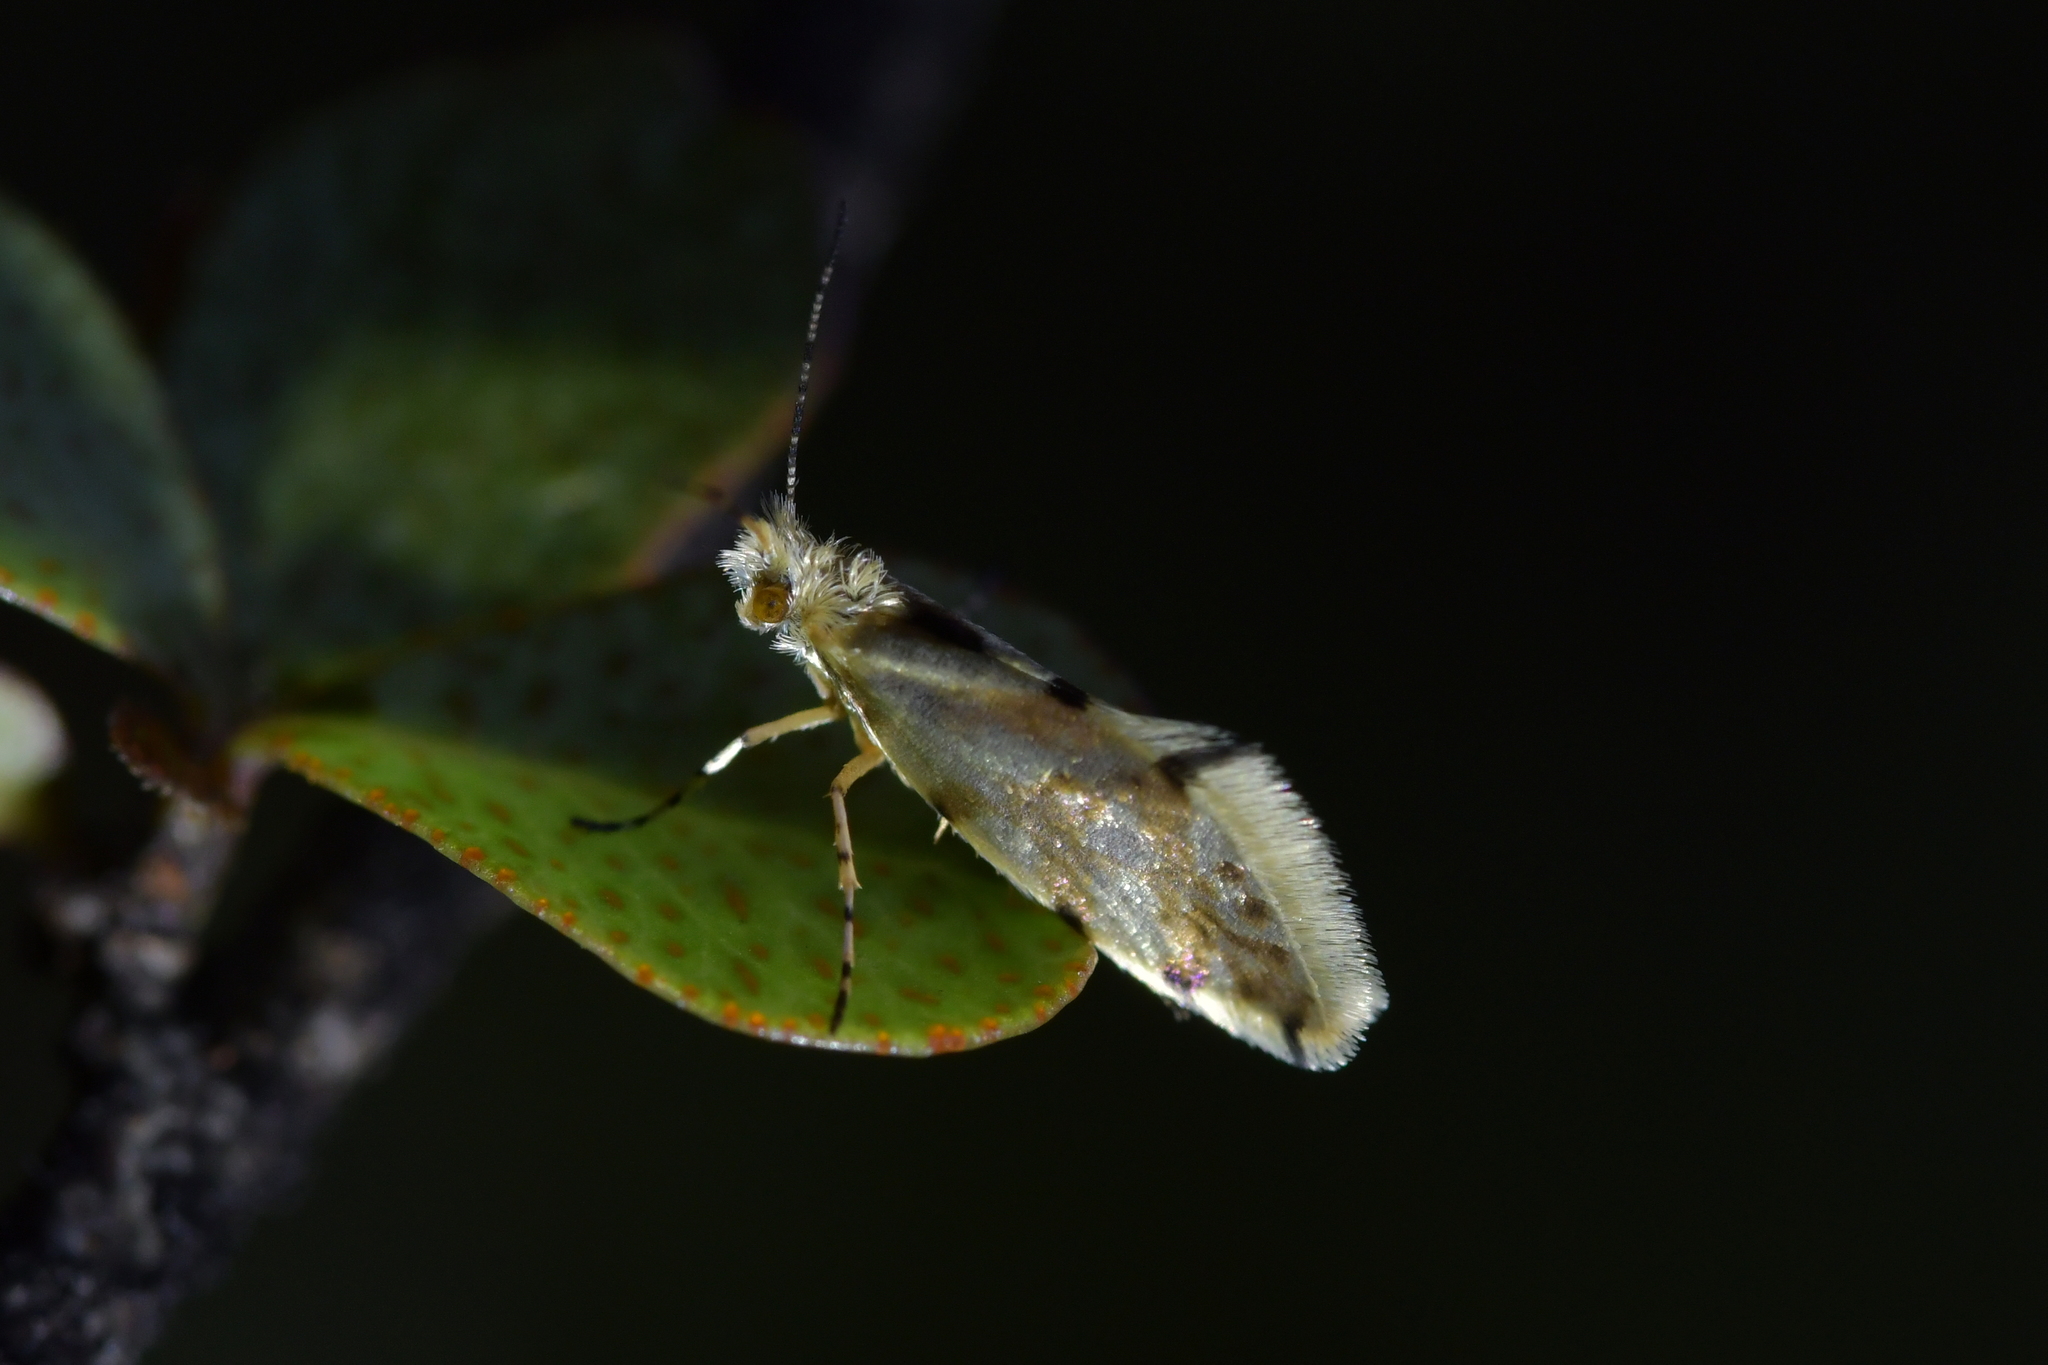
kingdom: Animalia
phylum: Arthropoda
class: Insecta
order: Lepidoptera
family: Micropterigidae
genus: Sabatinca
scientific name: Sabatinca chalcophanes
